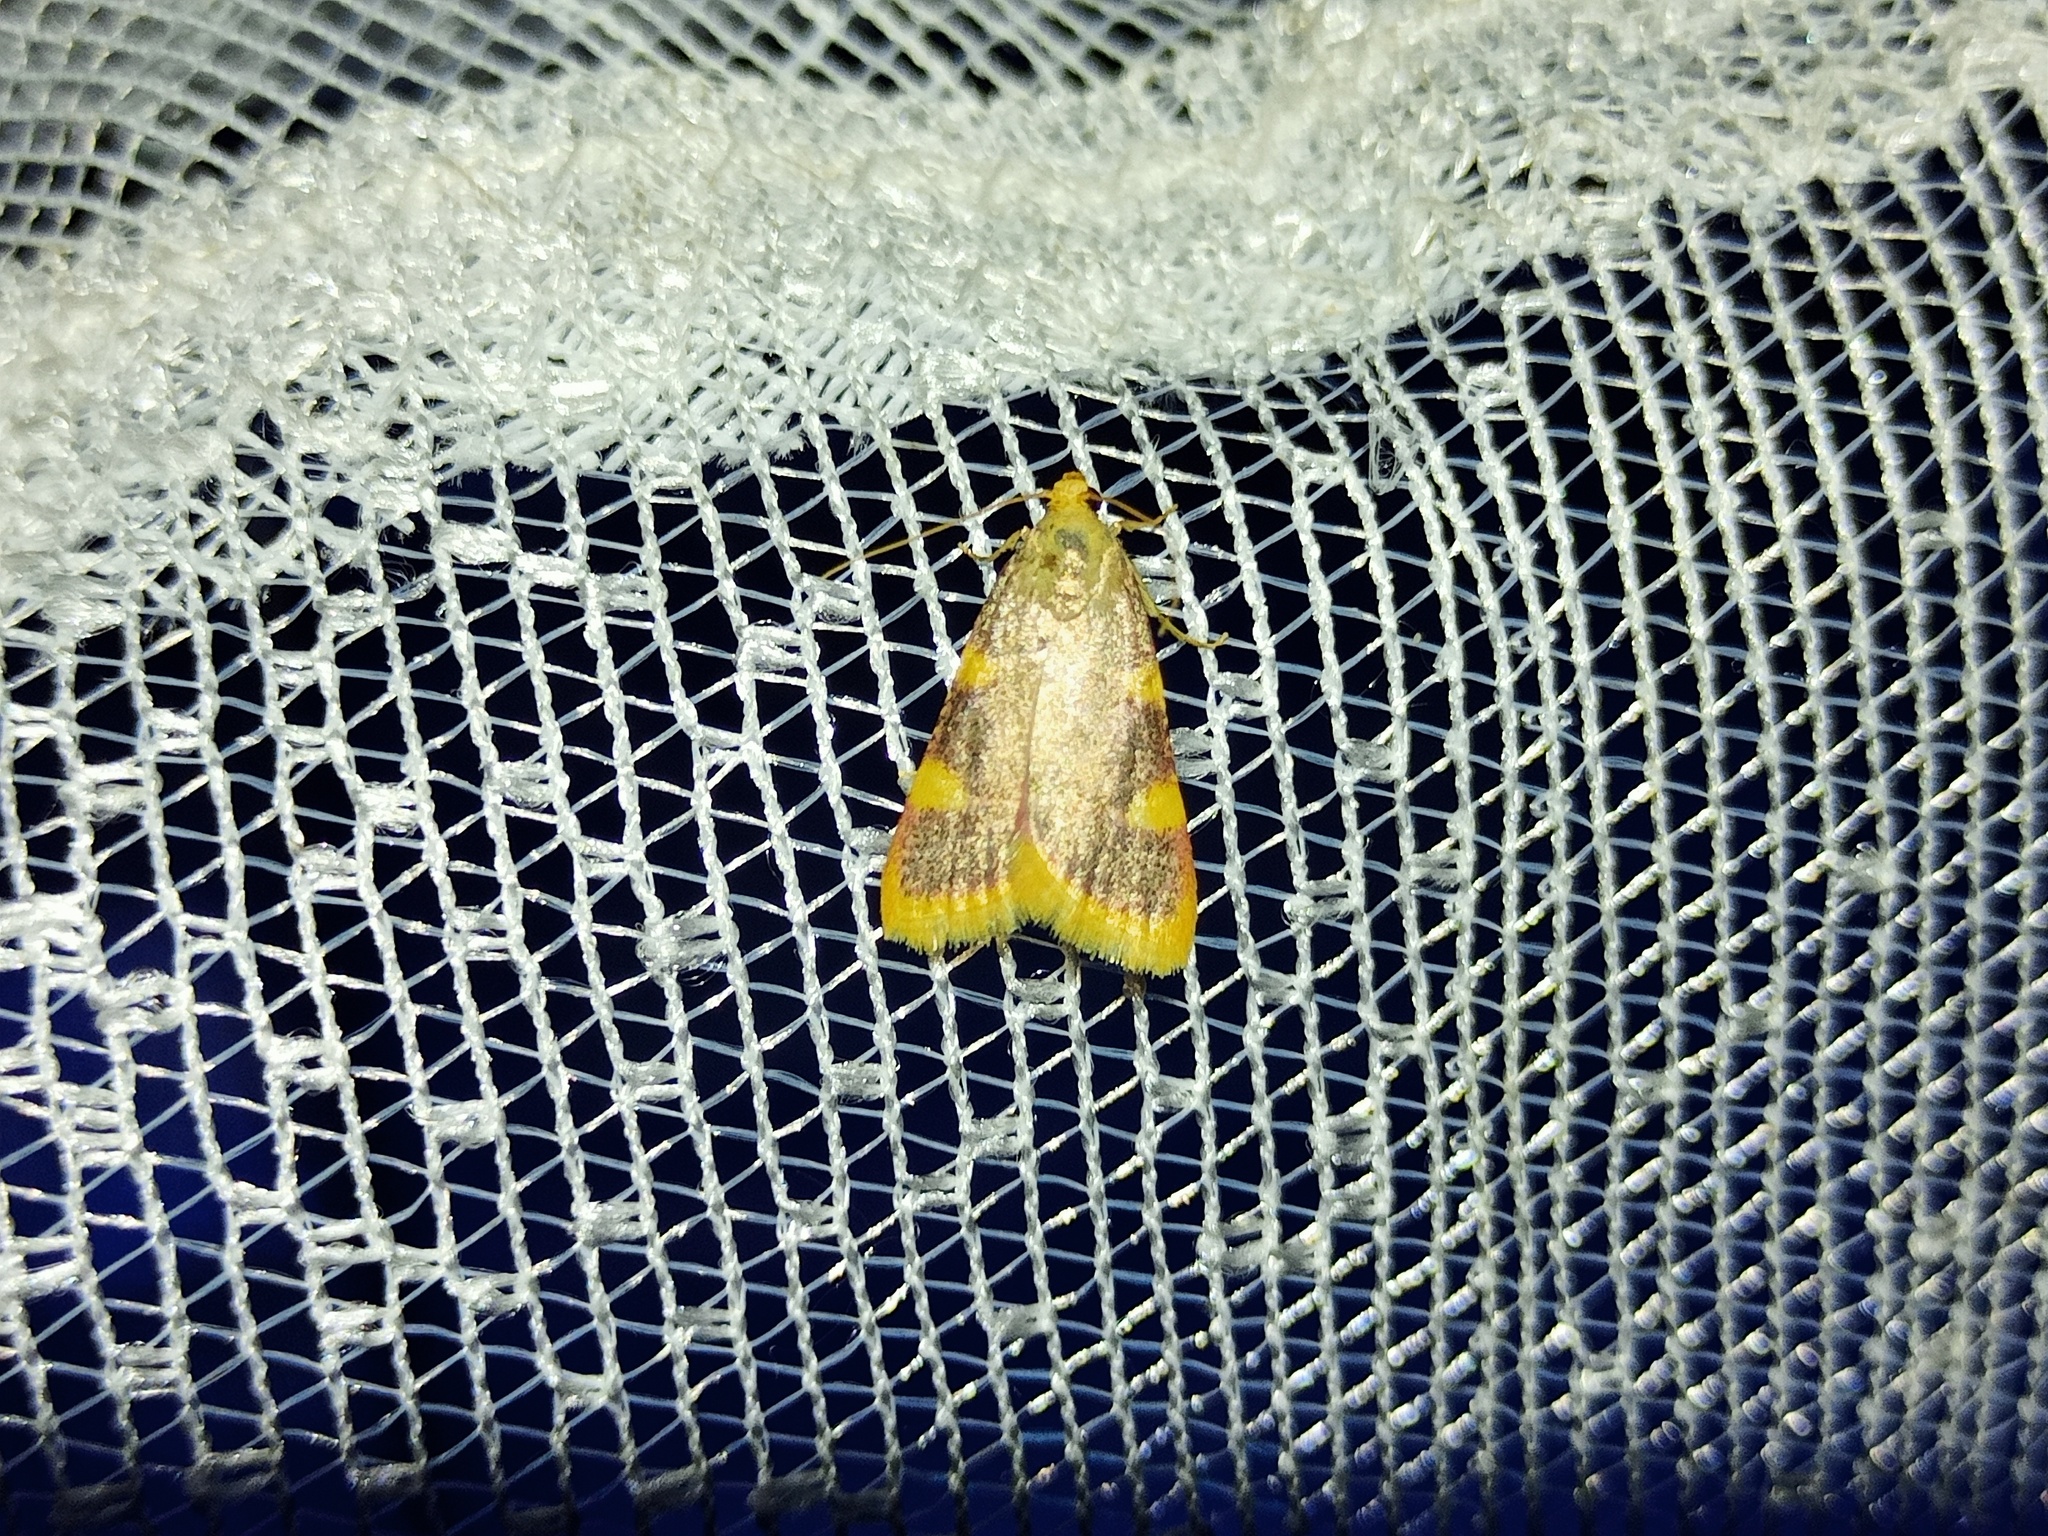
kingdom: Animalia
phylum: Arthropoda
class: Insecta
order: Lepidoptera
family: Pyralidae
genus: Hypsopygia
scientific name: Hypsopygia costalis
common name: Gold triangle
